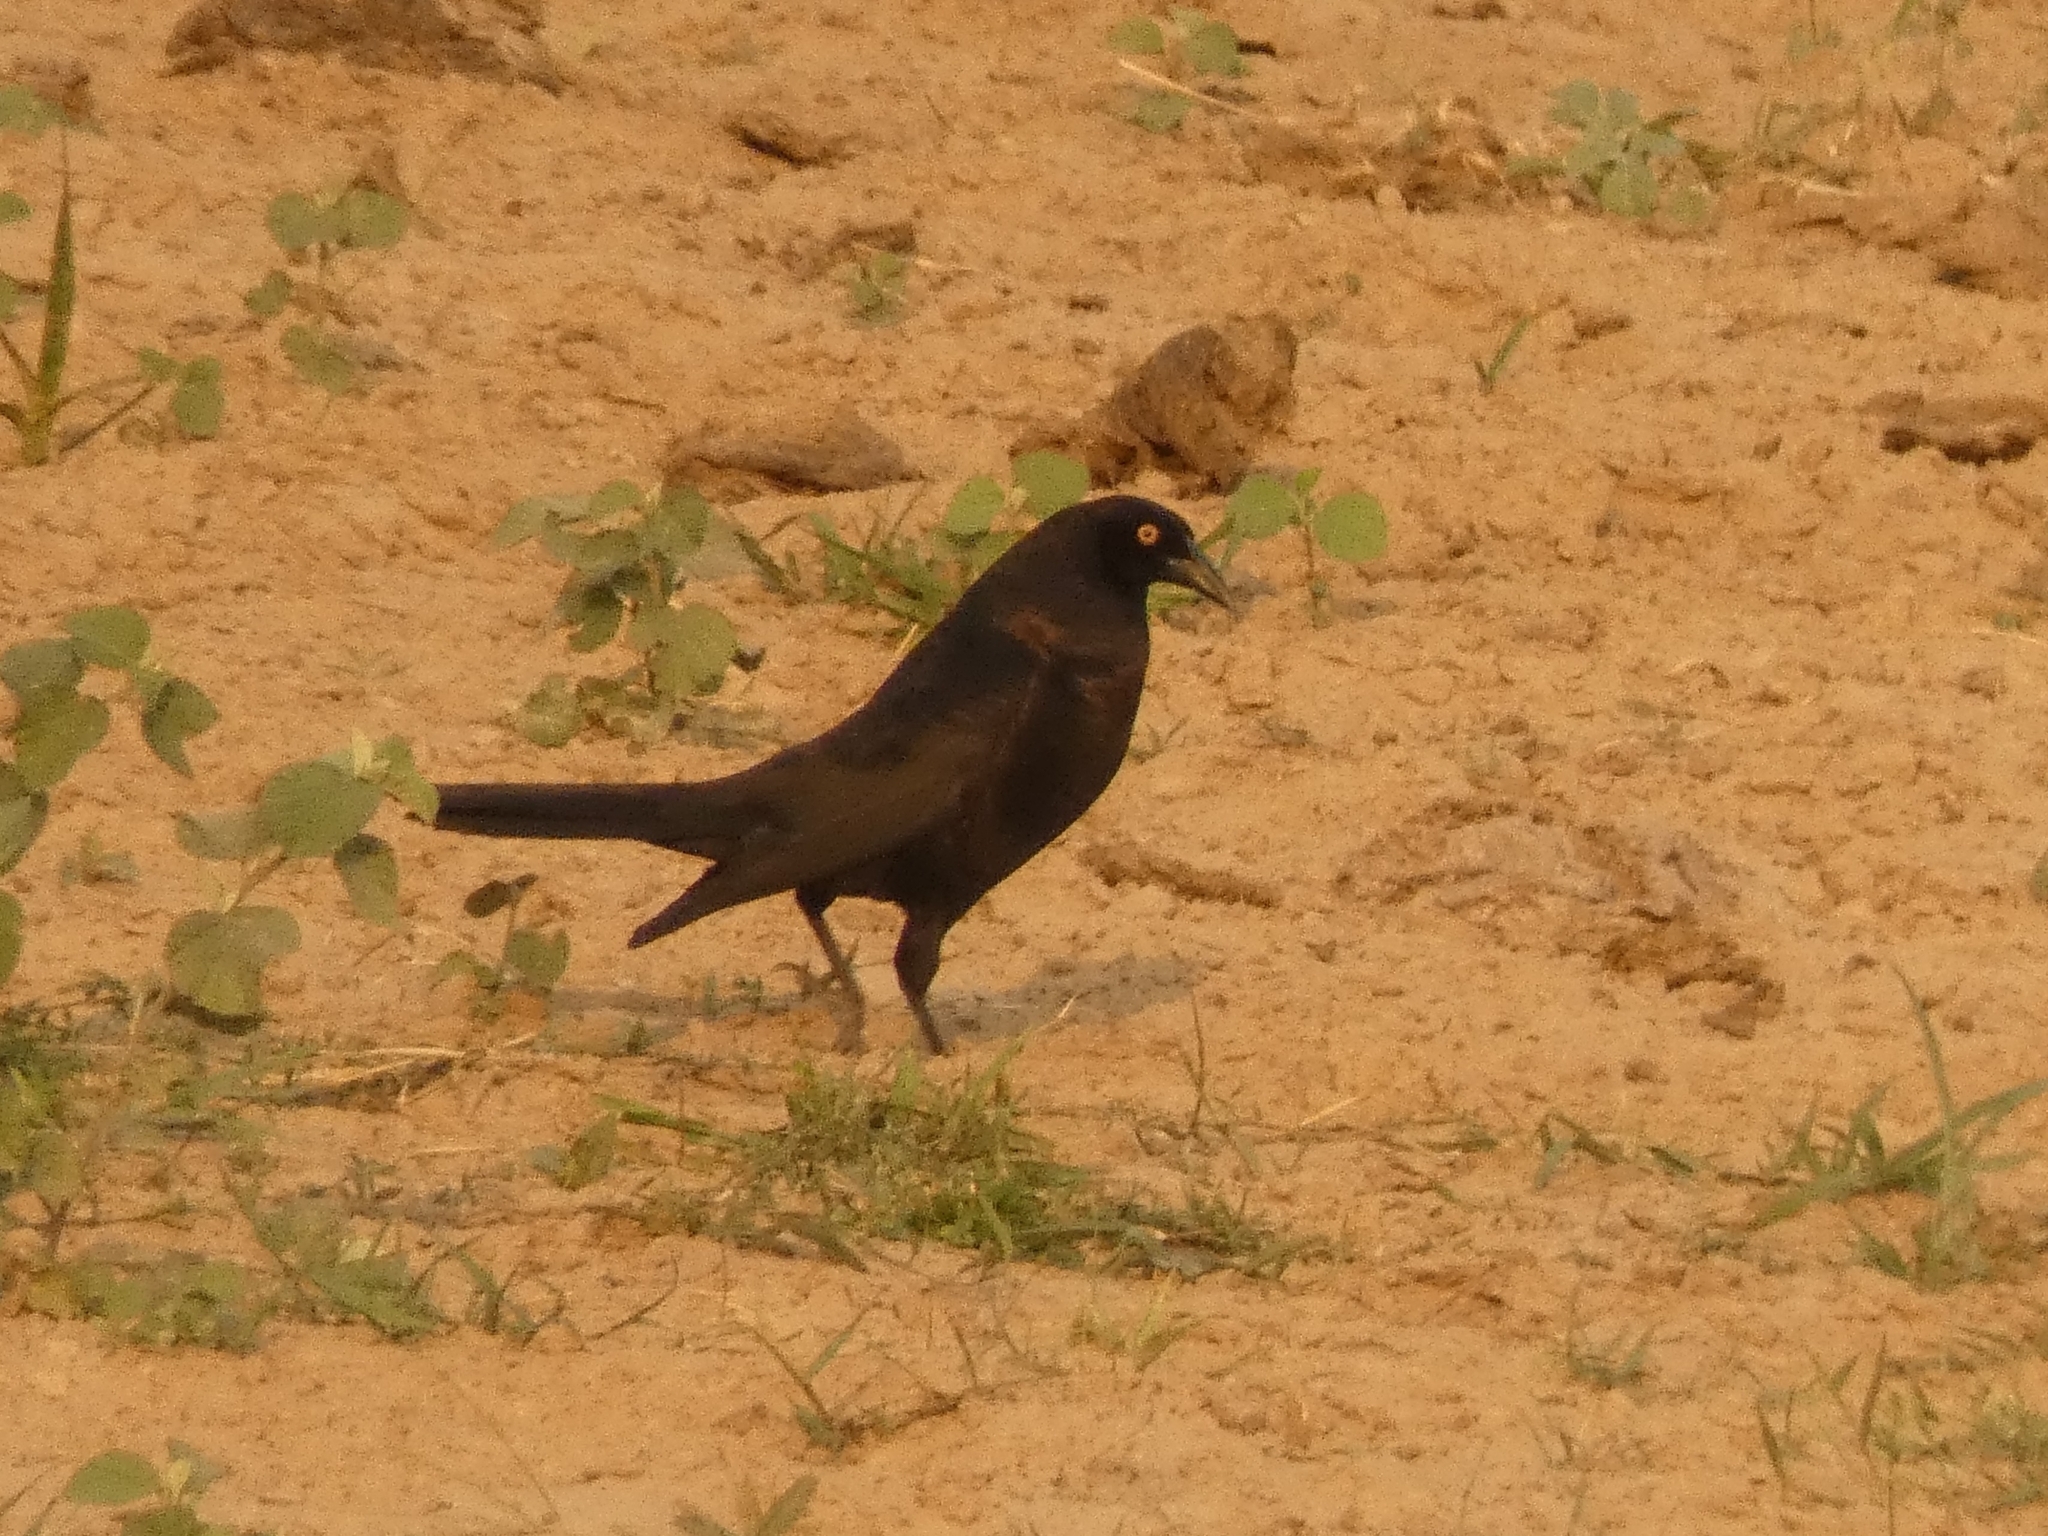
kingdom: Animalia
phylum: Chordata
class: Aves
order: Passeriformes
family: Icteridae
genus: Molothrus
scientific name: Molothrus oryzivorus
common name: Giant cowbird
